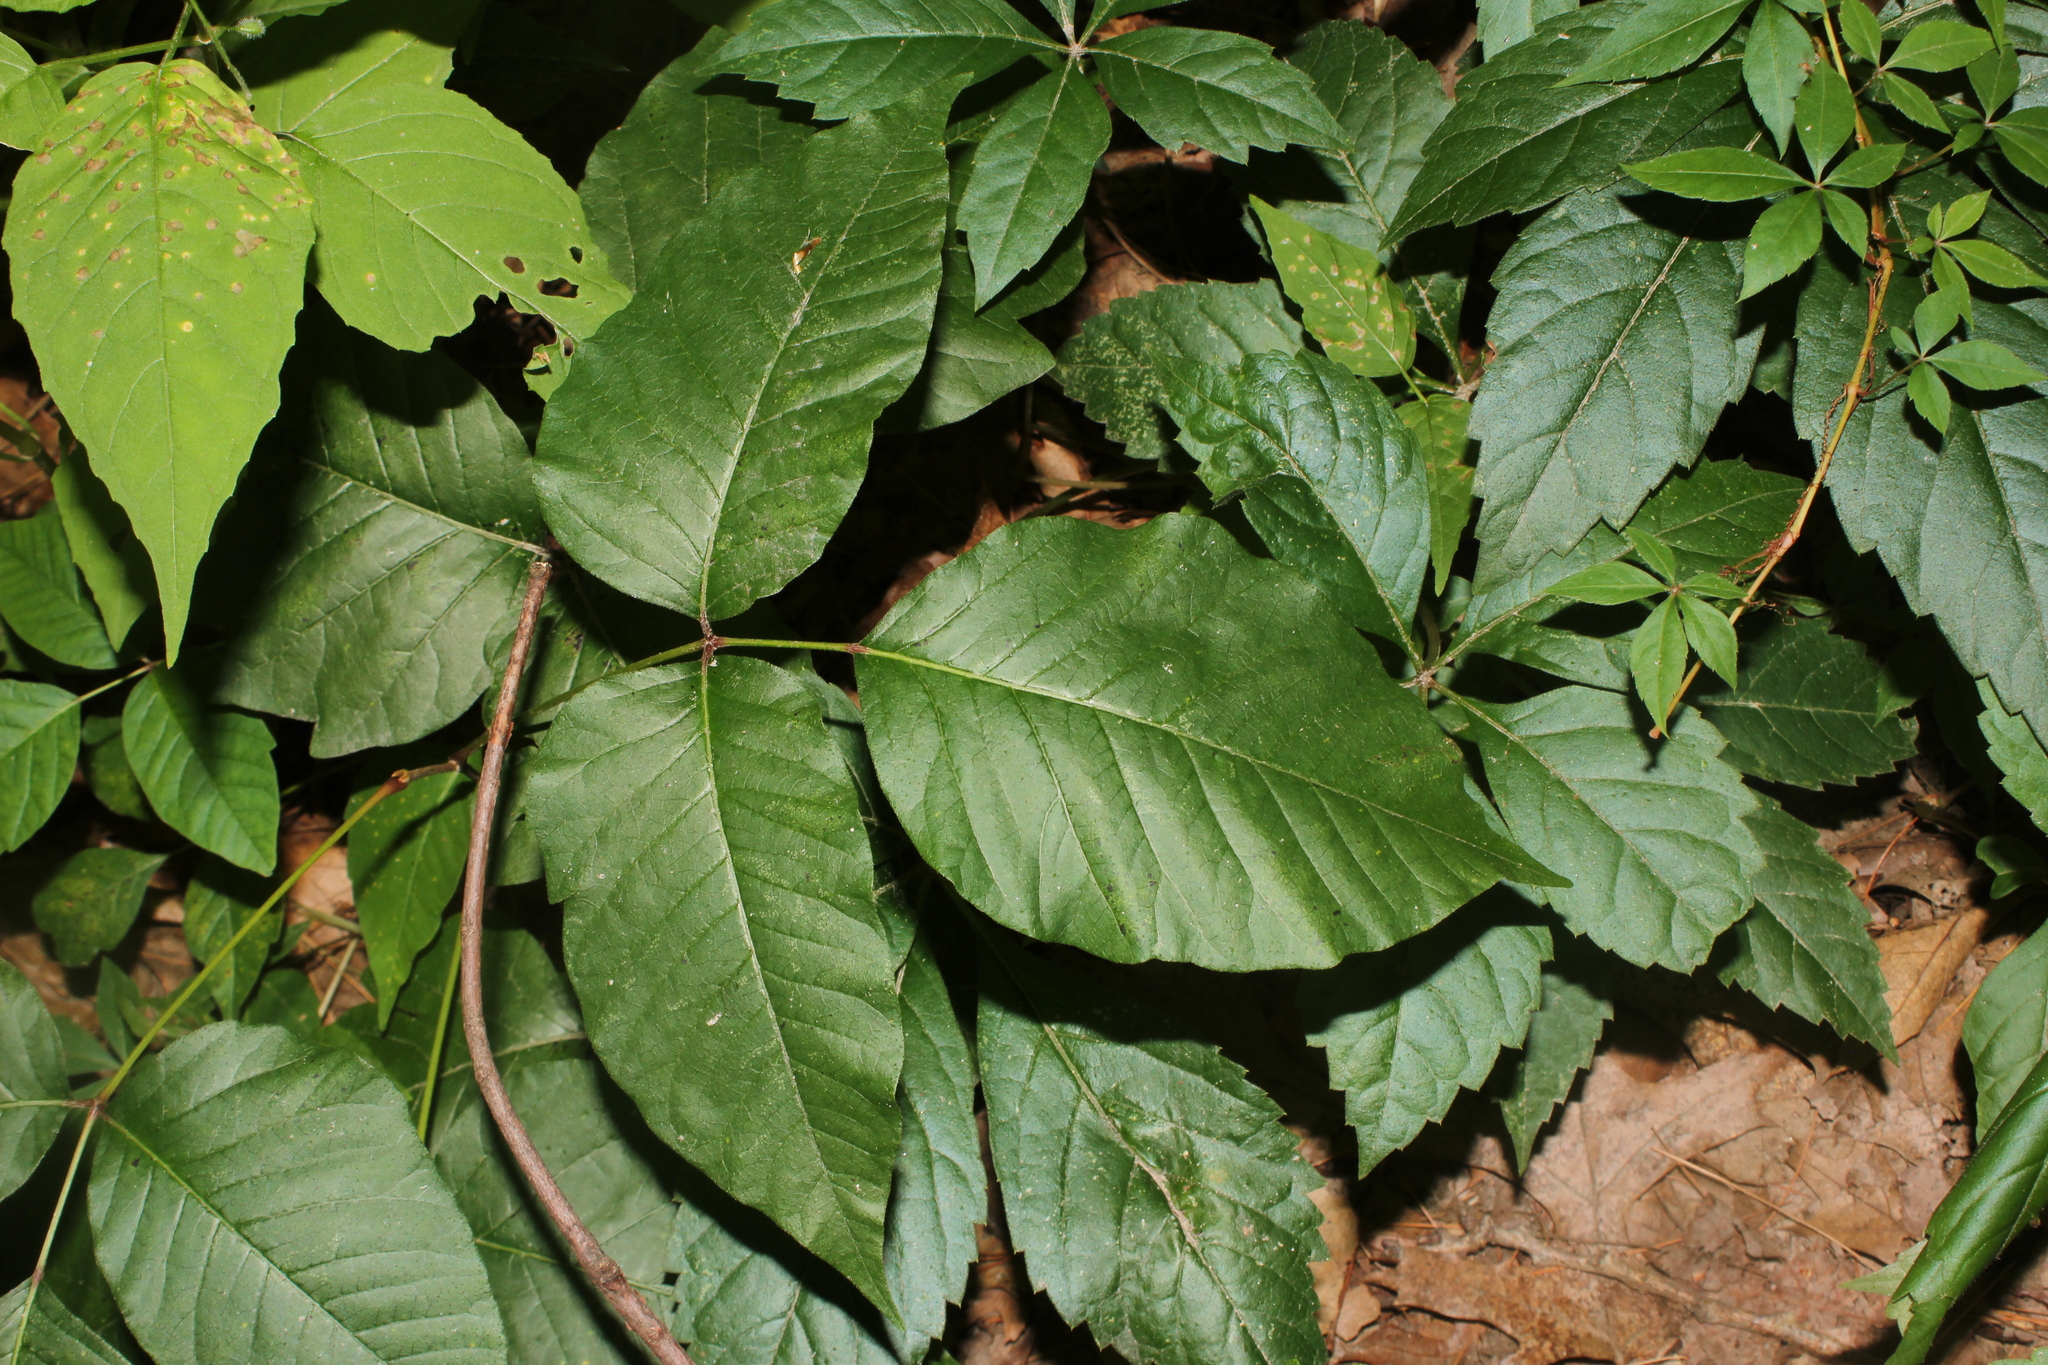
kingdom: Plantae
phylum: Tracheophyta
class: Magnoliopsida
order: Sapindales
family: Anacardiaceae
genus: Toxicodendron
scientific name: Toxicodendron radicans
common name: Poison ivy
